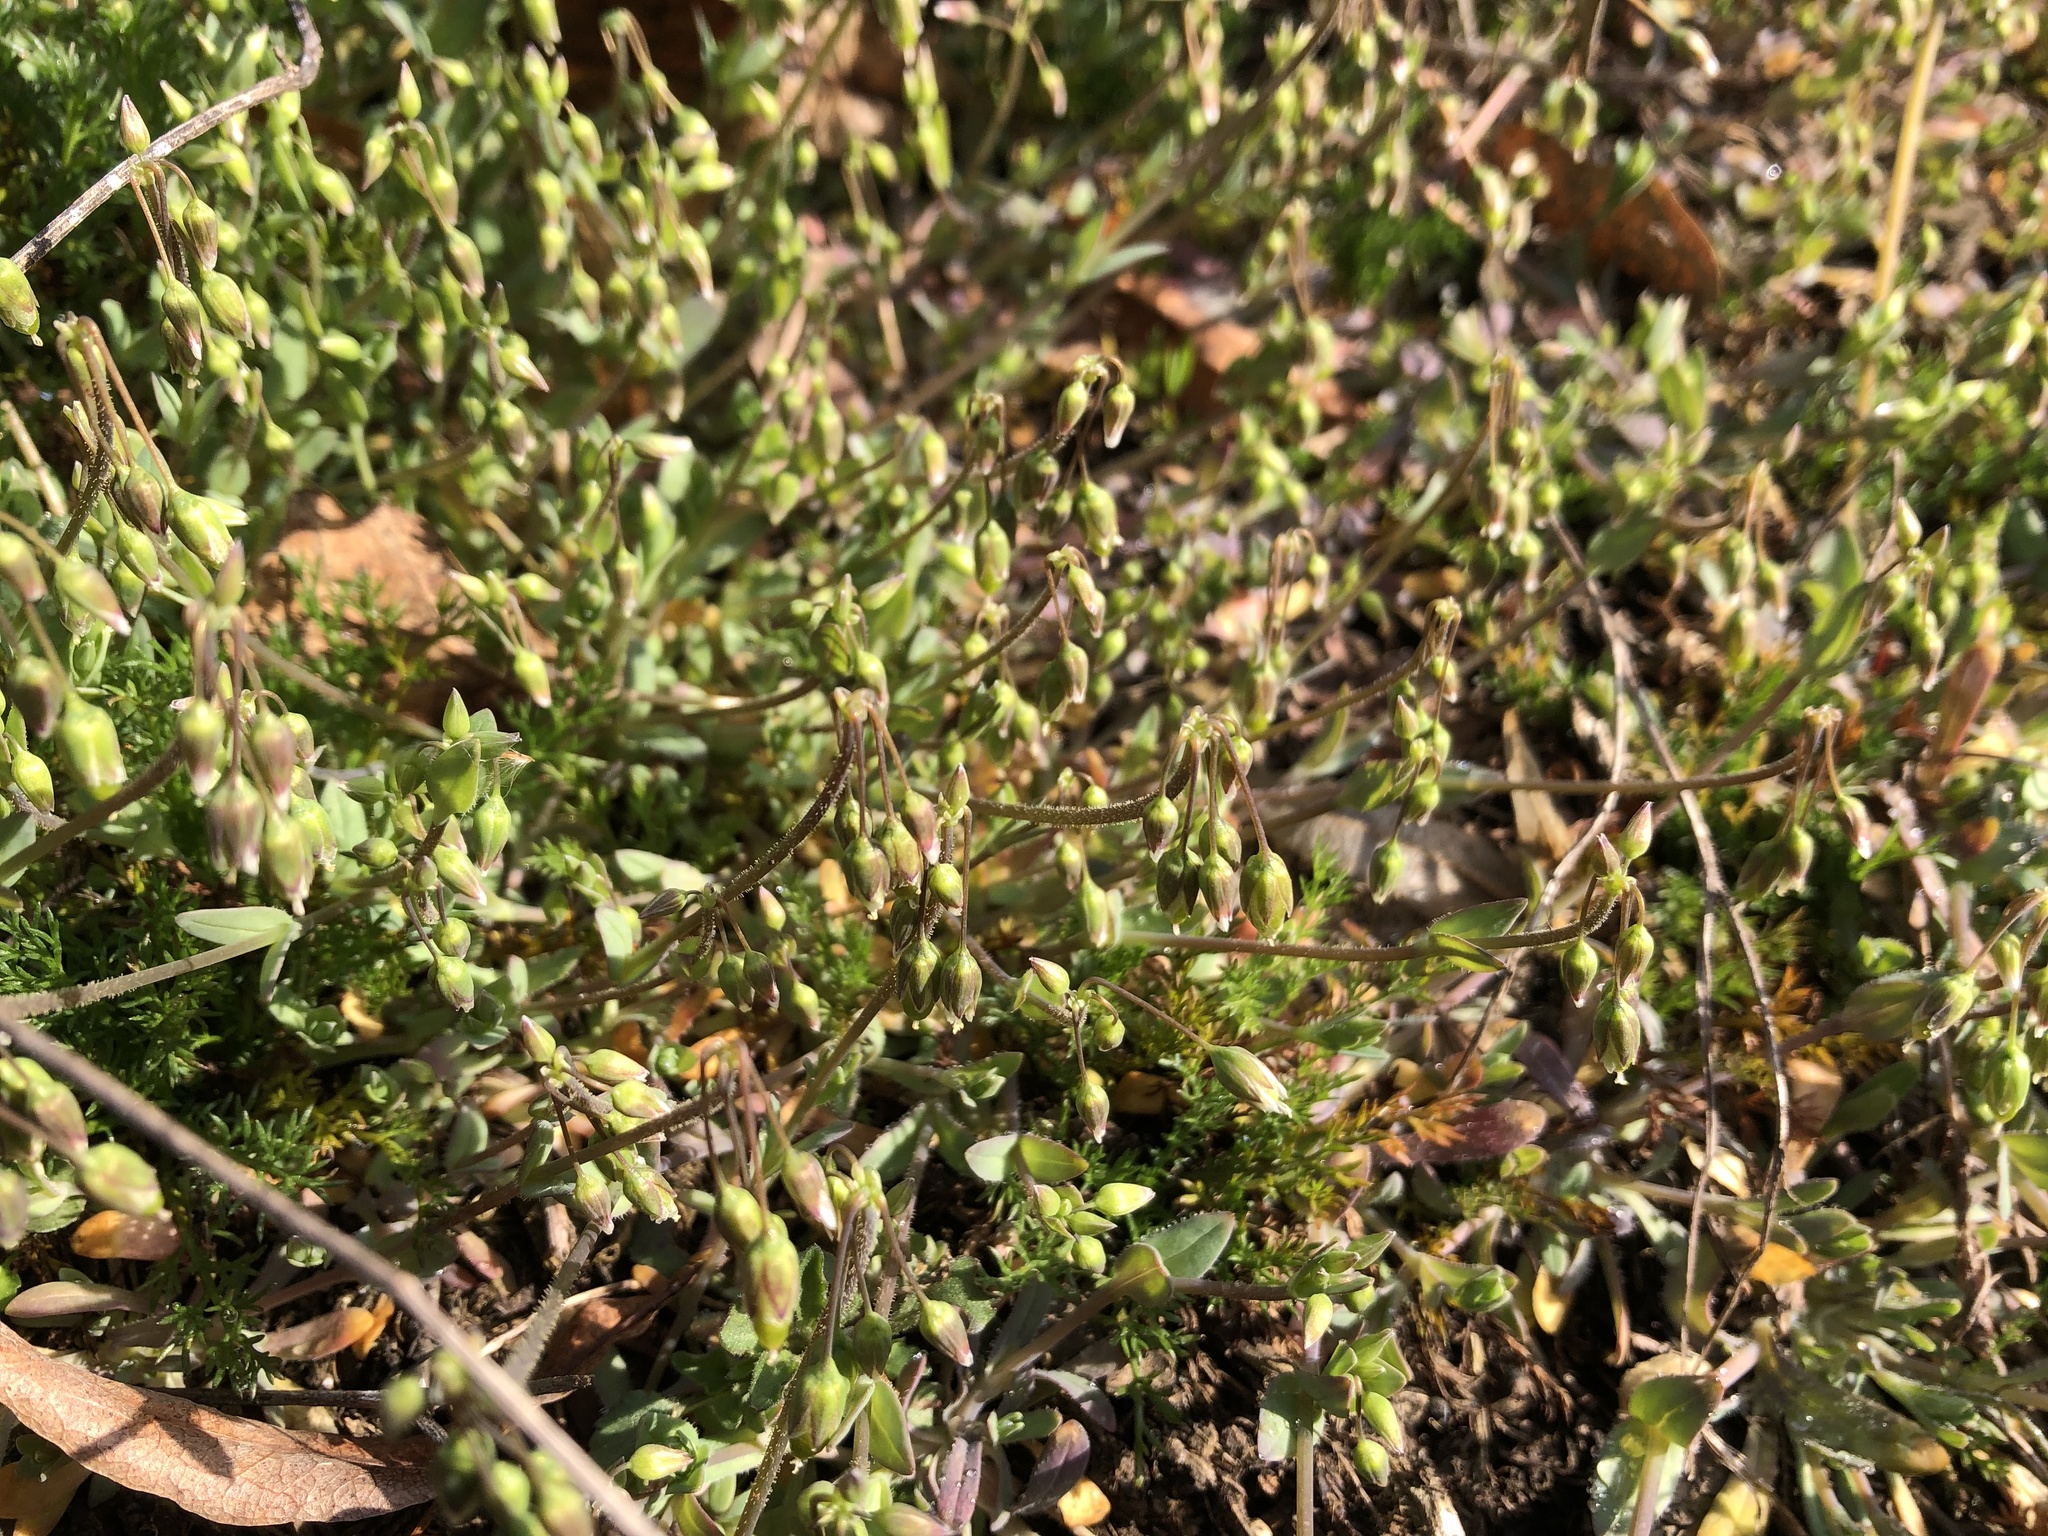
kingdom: Plantae
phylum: Tracheophyta
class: Magnoliopsida
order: Caryophyllales
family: Caryophyllaceae
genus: Holosteum
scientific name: Holosteum umbellatum
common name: Jagged chickweed
